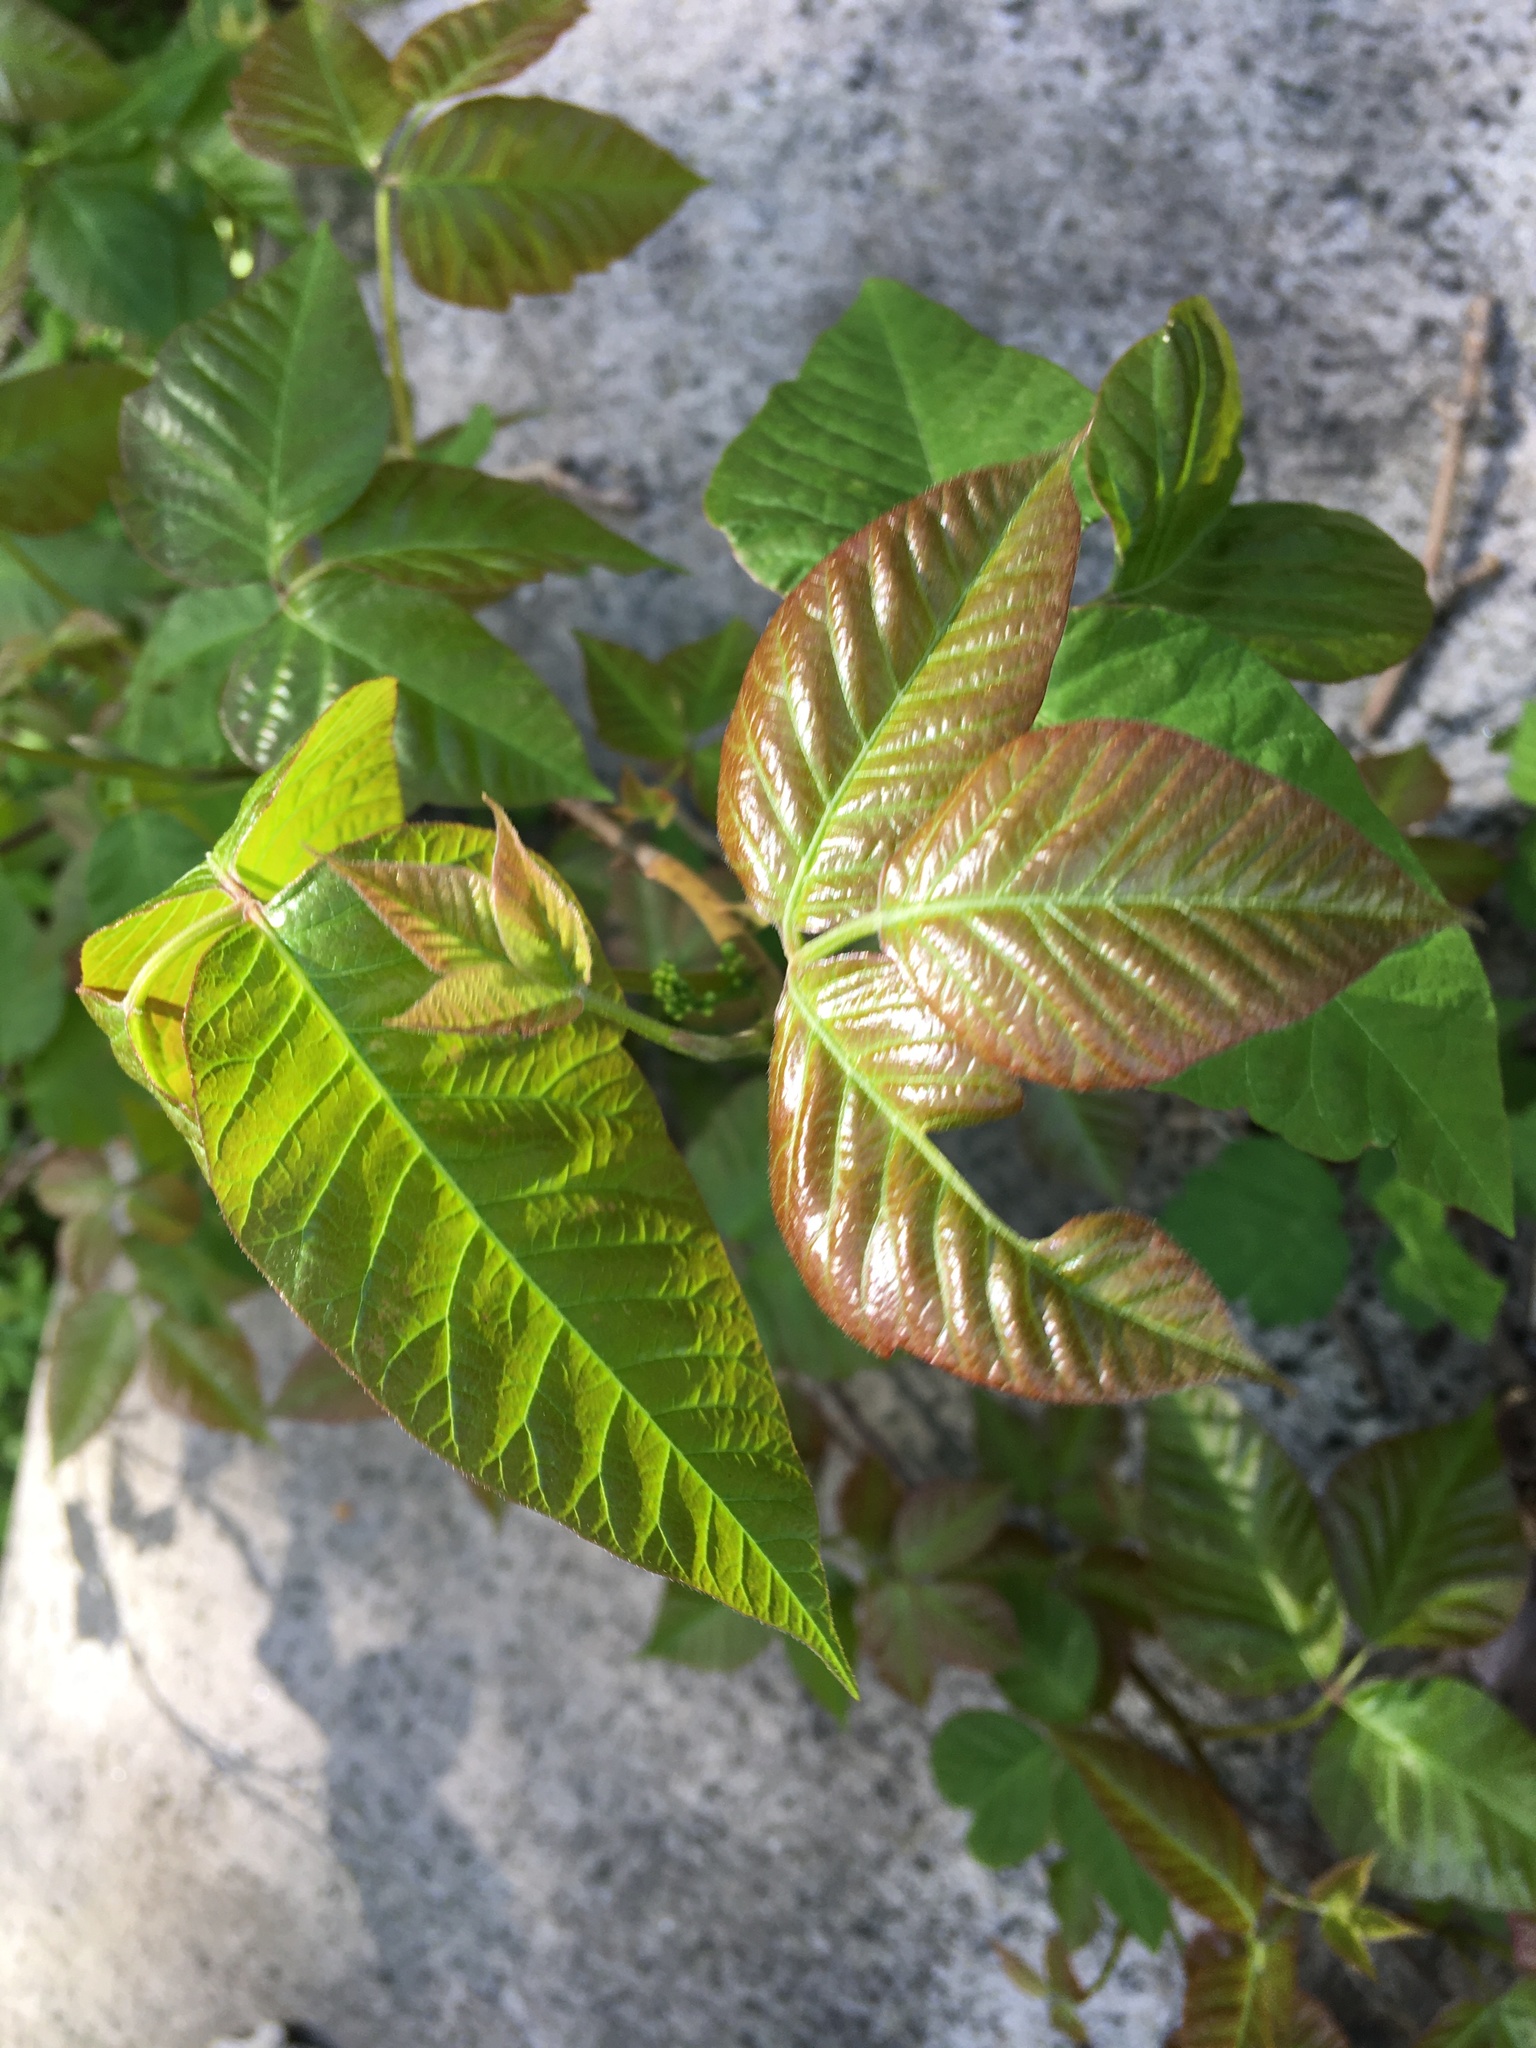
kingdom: Plantae
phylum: Tracheophyta
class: Magnoliopsida
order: Sapindales
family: Anacardiaceae
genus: Toxicodendron
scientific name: Toxicodendron radicans
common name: Poison ivy
